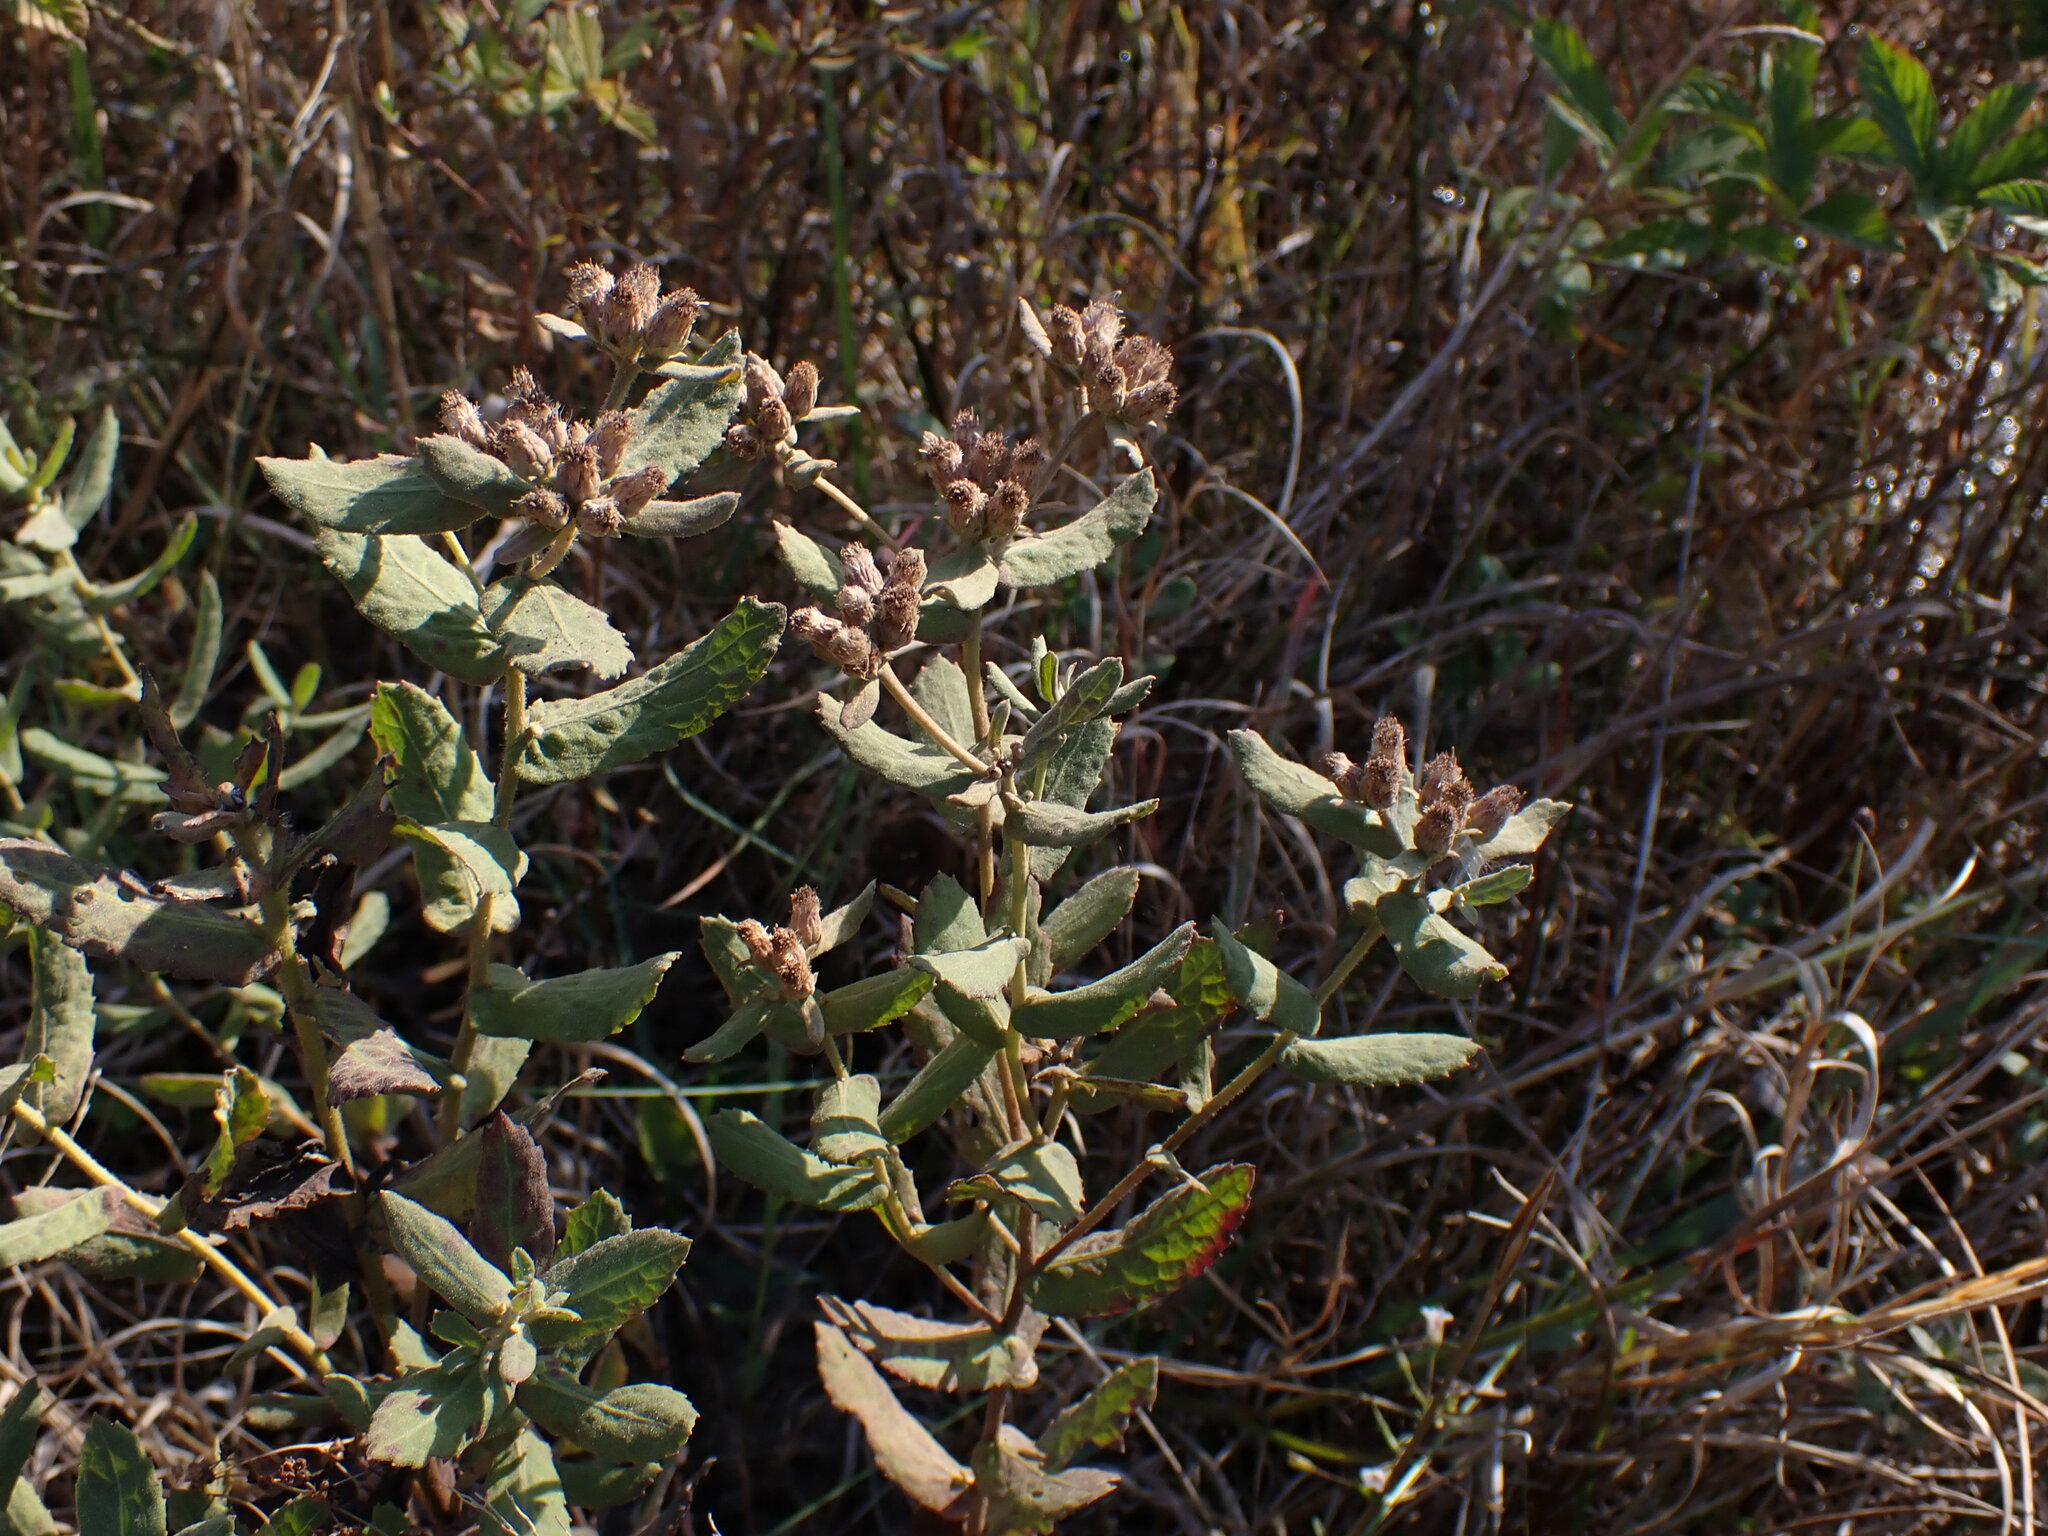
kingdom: Plantae
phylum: Tracheophyta
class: Magnoliopsida
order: Asterales
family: Asteraceae
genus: Pluchea
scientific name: Pluchea baccharis
